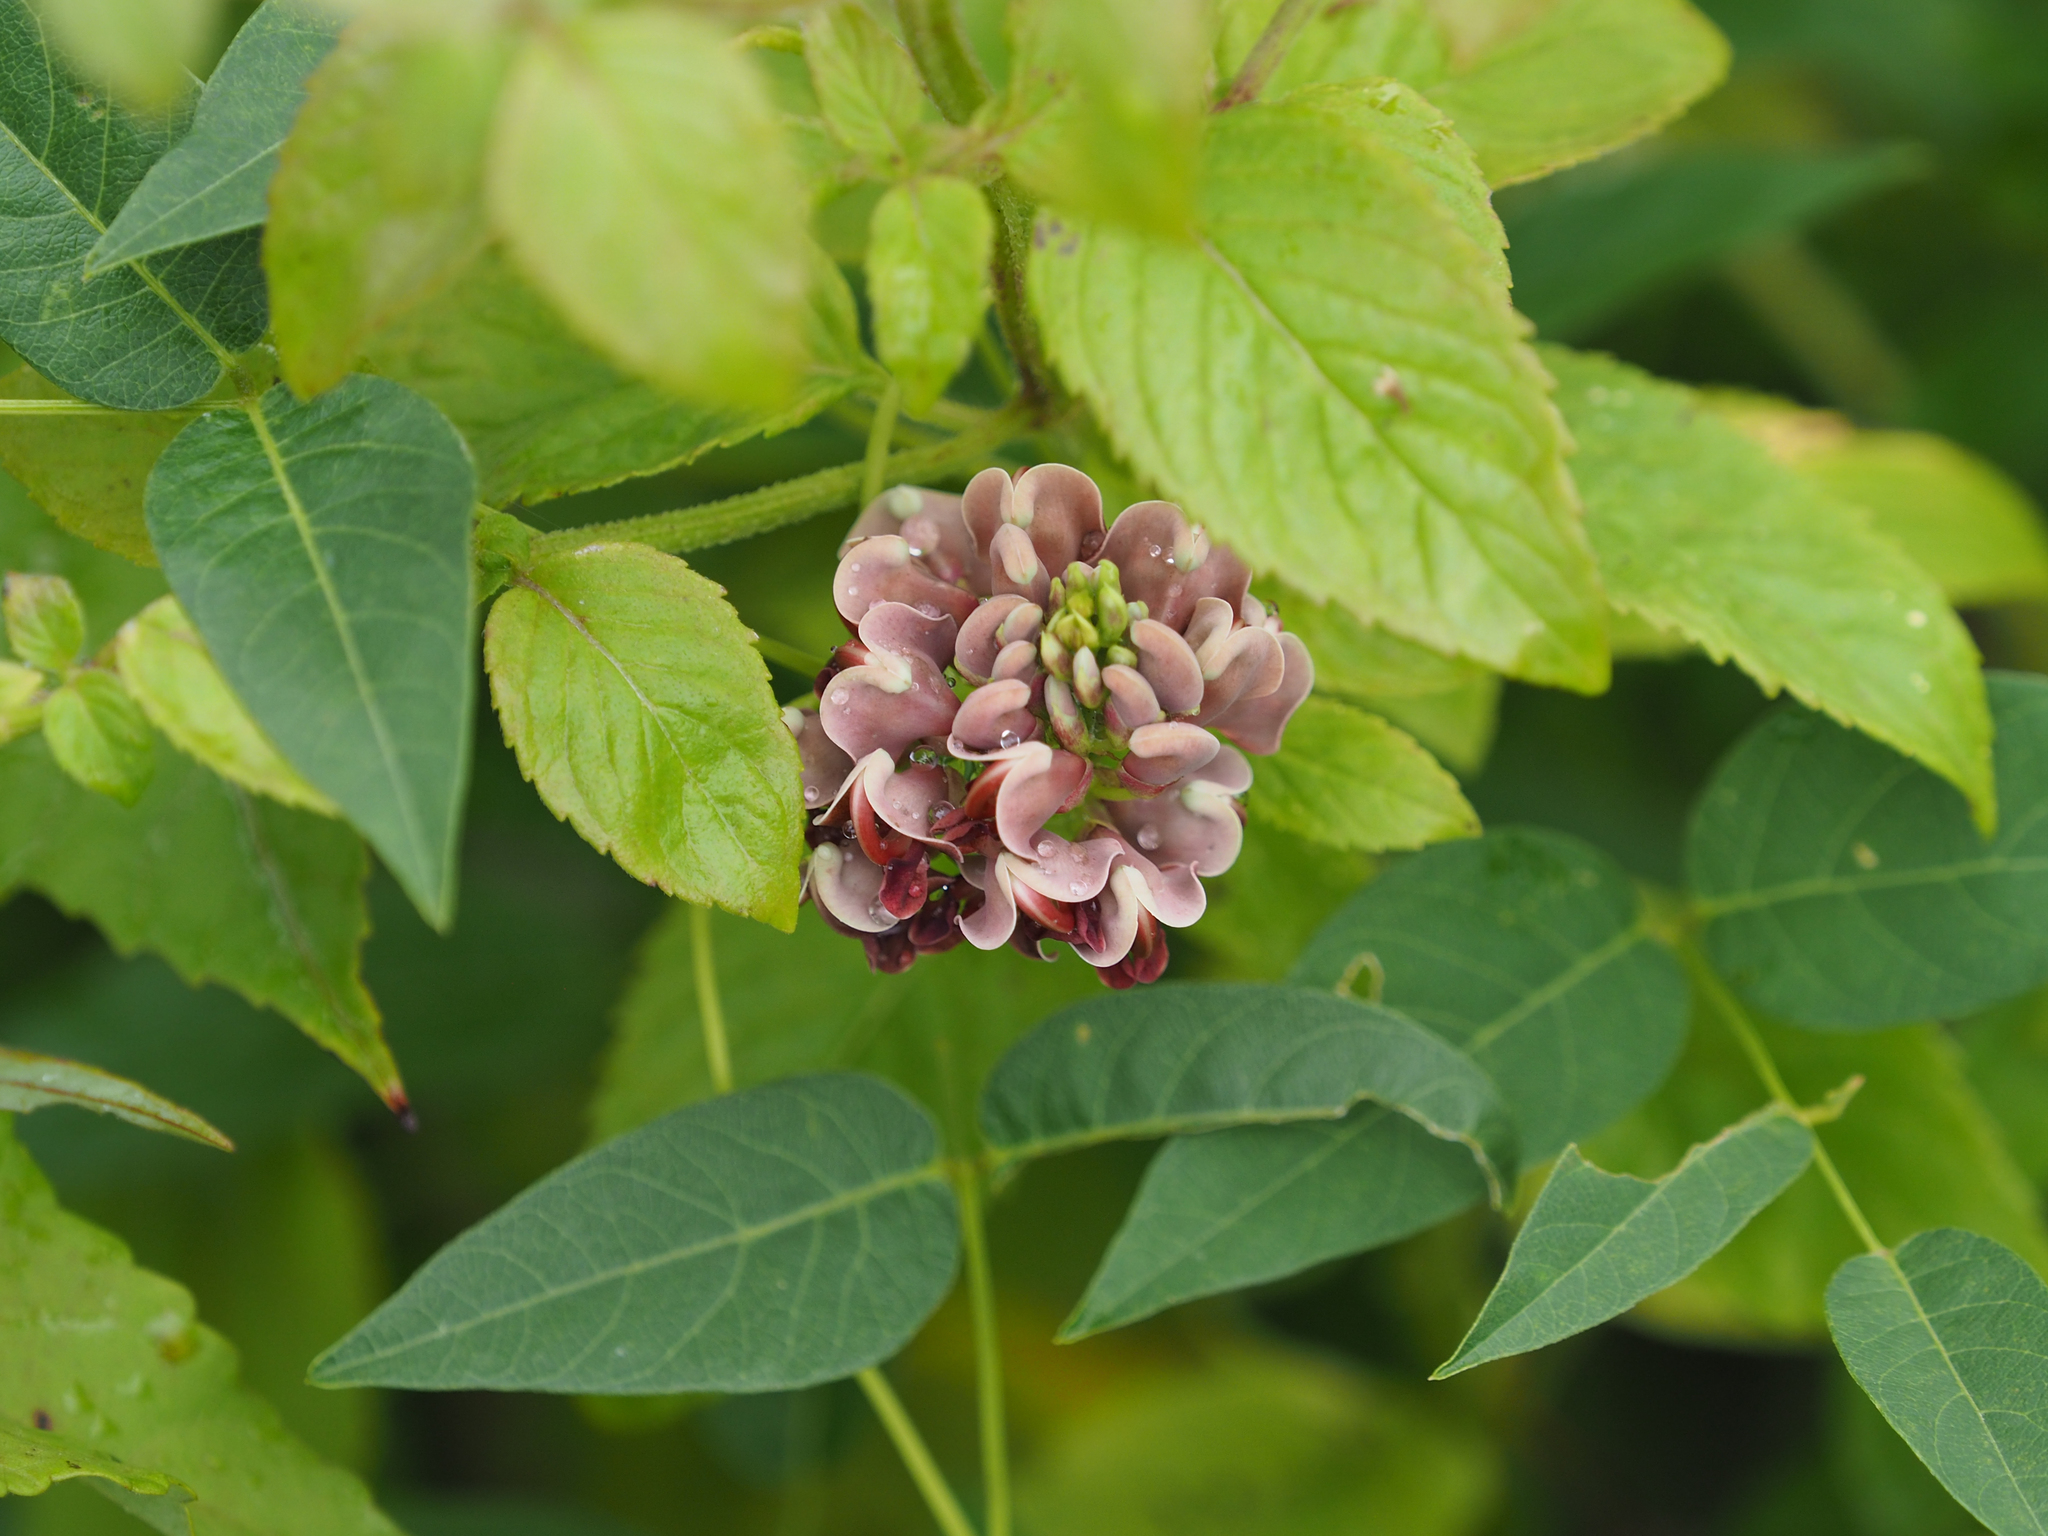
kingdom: Plantae
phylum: Tracheophyta
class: Magnoliopsida
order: Fabales
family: Fabaceae
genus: Apios
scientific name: Apios americana
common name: American potato-bean
